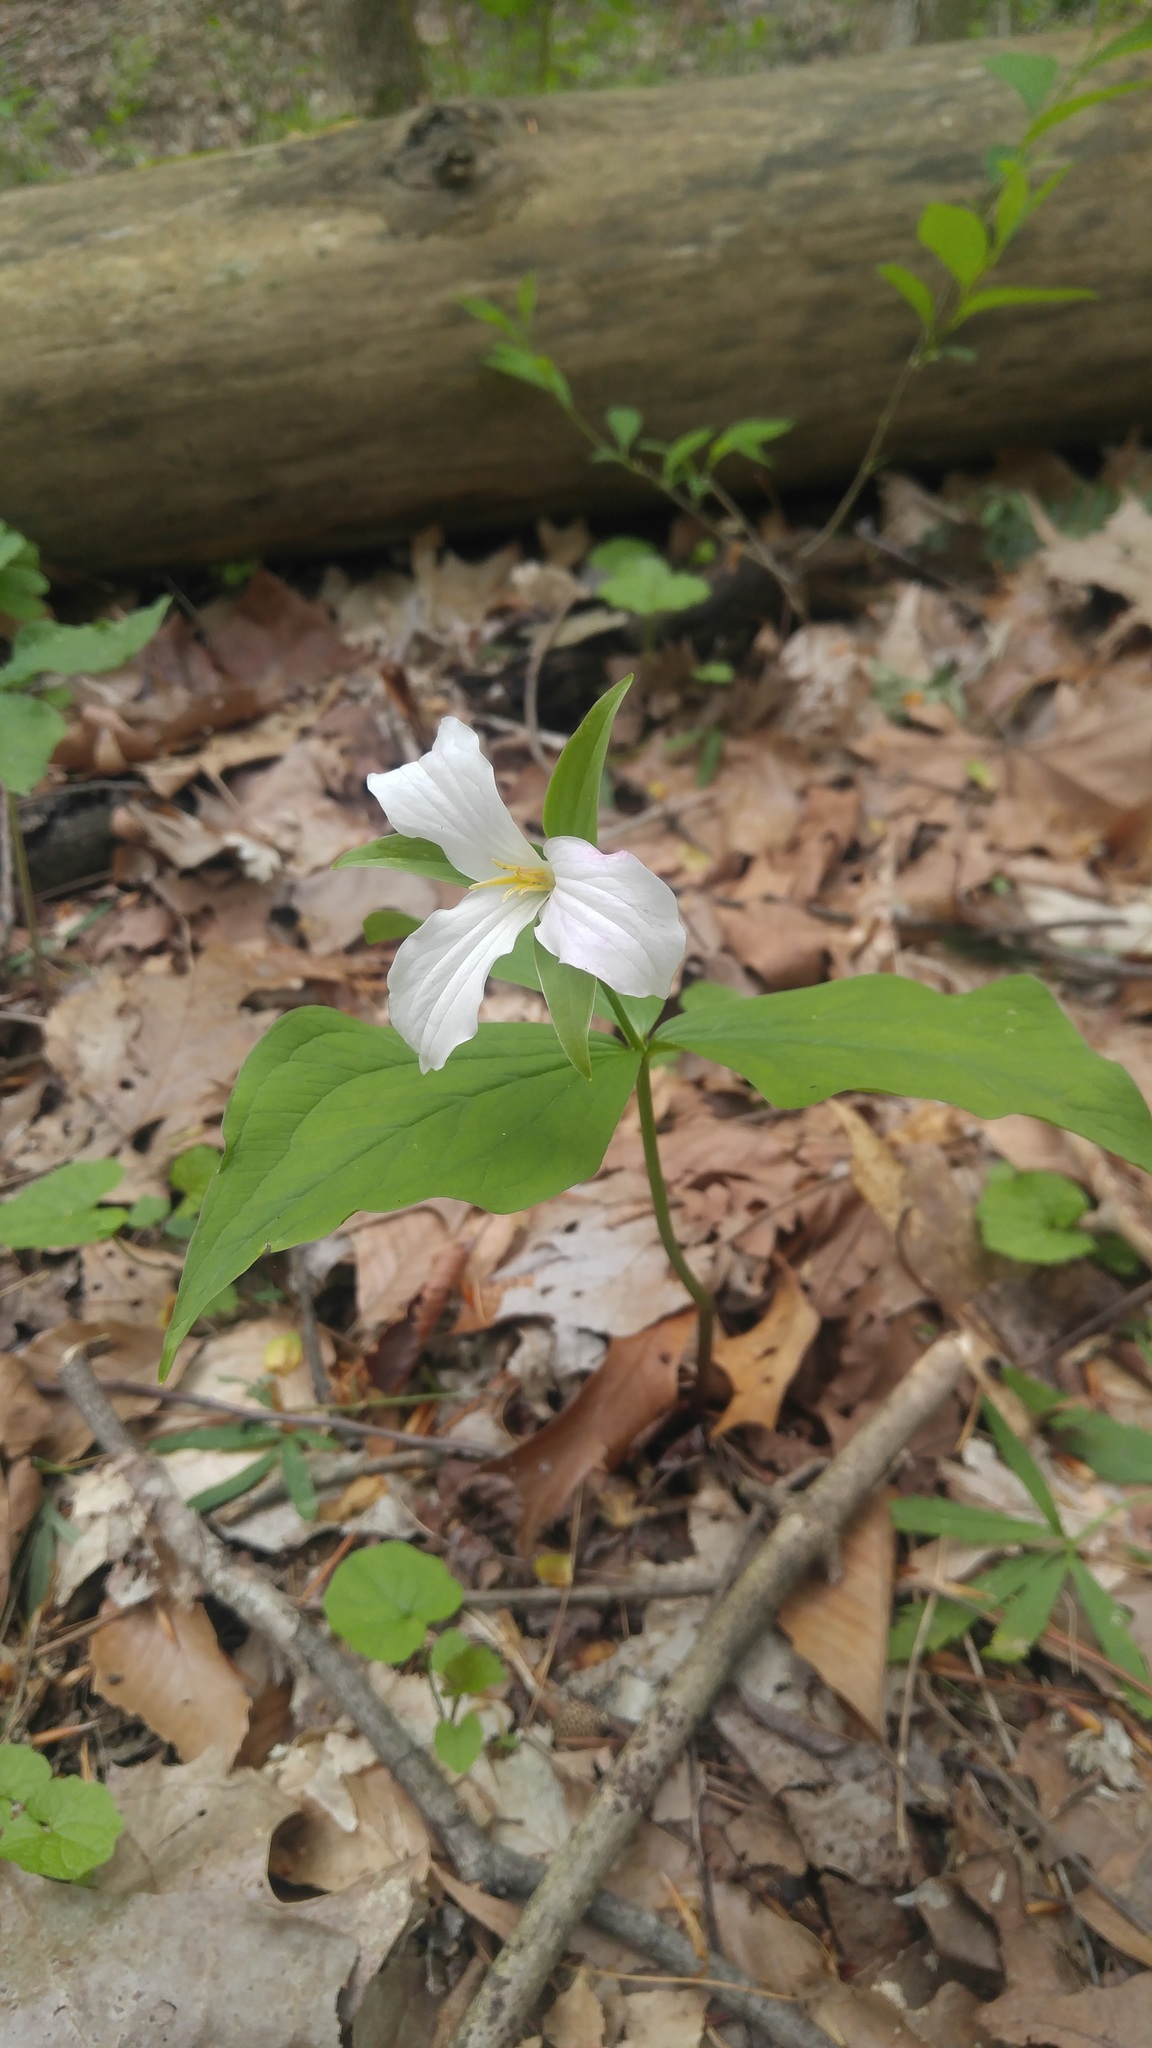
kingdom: Plantae
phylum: Tracheophyta
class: Liliopsida
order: Liliales
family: Melanthiaceae
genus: Trillium
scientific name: Trillium grandiflorum
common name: Great white trillium
